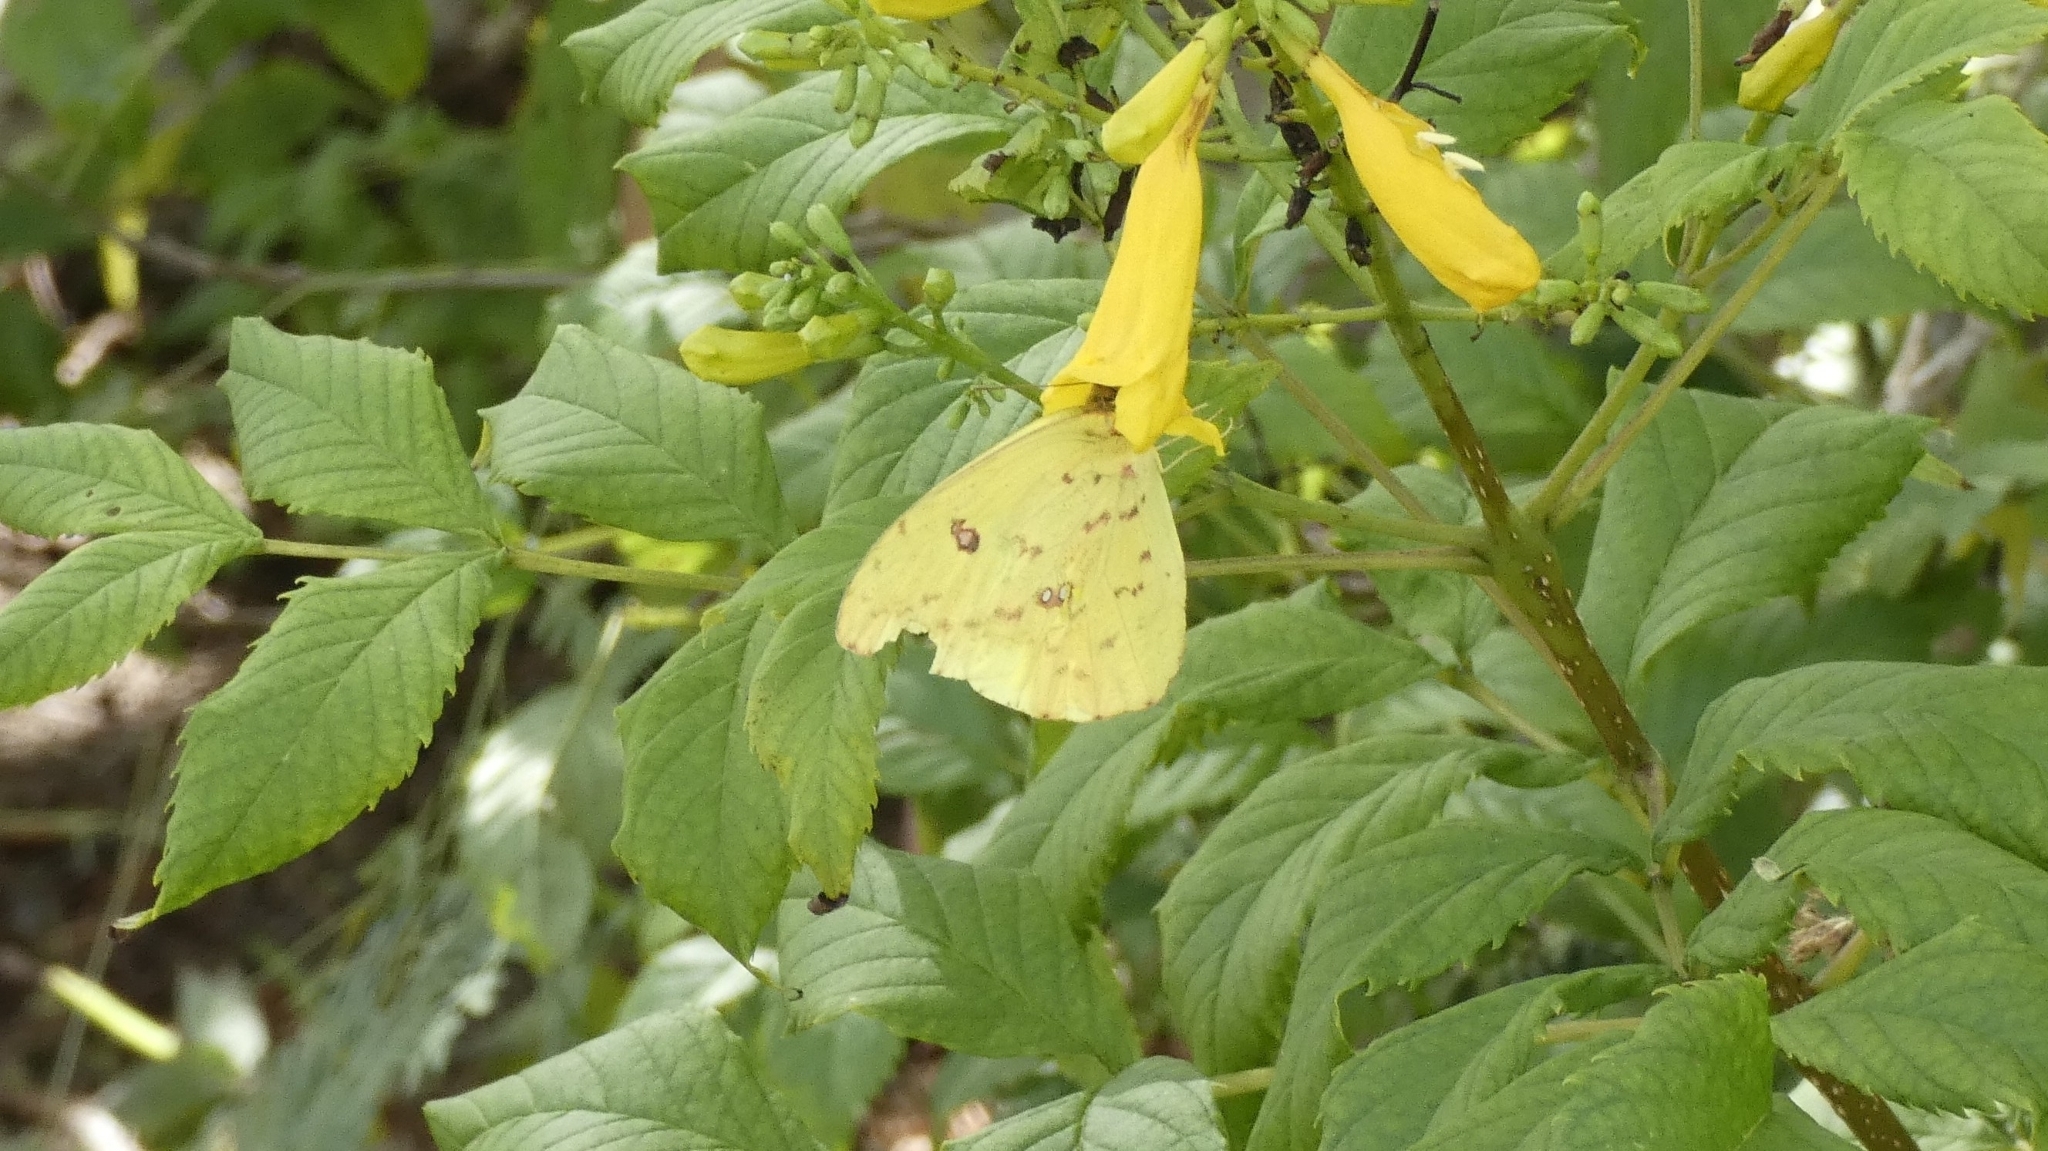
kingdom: Animalia
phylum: Arthropoda
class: Insecta
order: Lepidoptera
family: Pieridae
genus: Phoebis
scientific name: Phoebis sennae
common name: Cloudless sulphur
